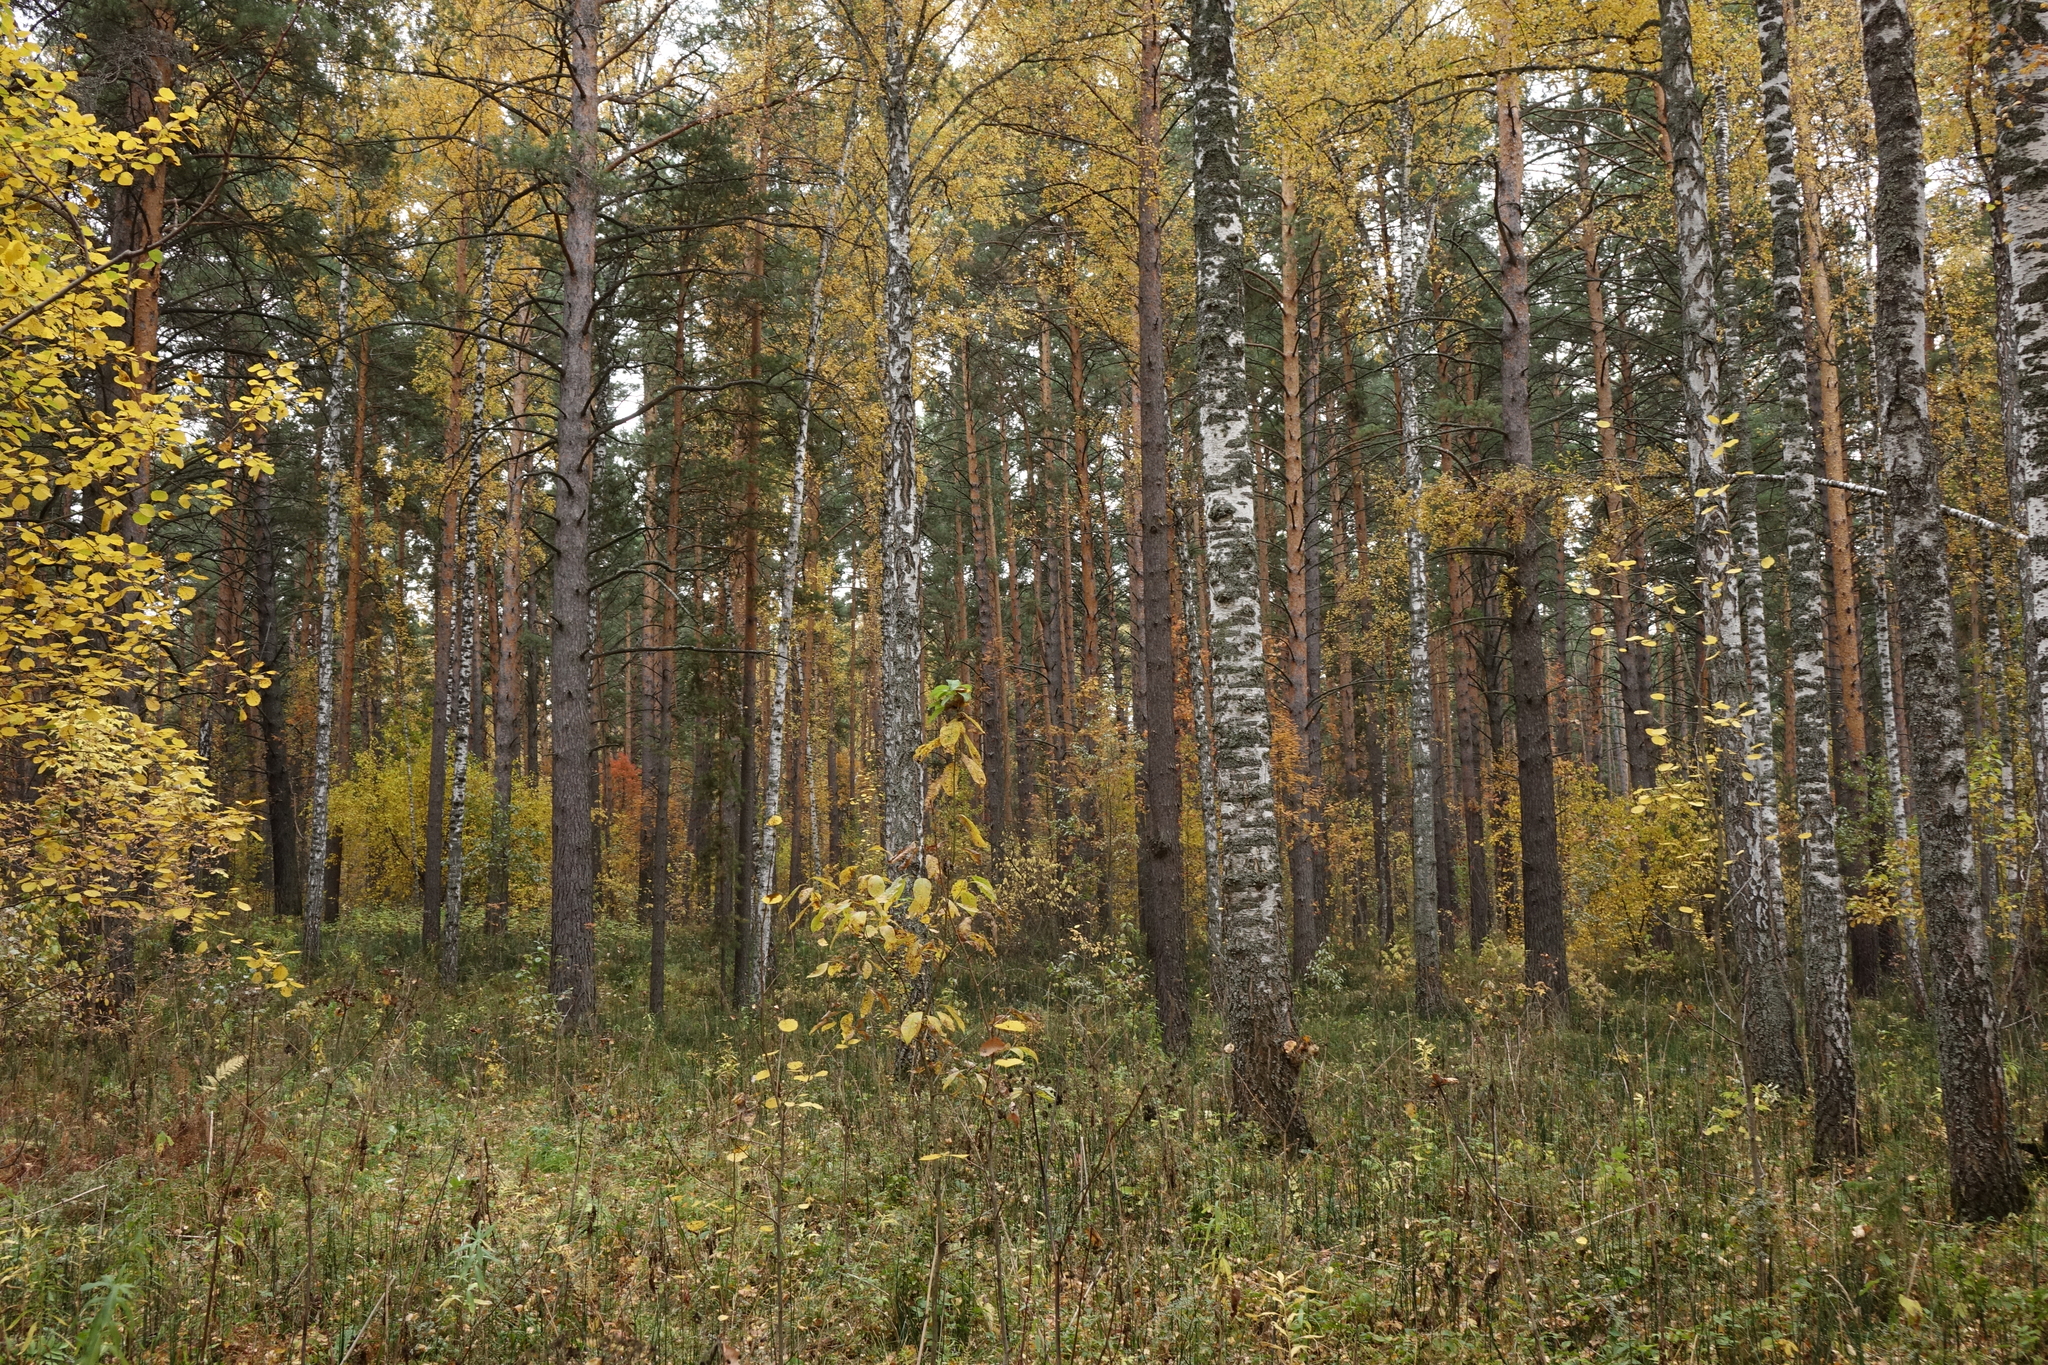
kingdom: Plantae
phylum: Tracheophyta
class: Magnoliopsida
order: Fagales
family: Betulaceae
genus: Betula
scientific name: Betula pendula
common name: Silver birch
